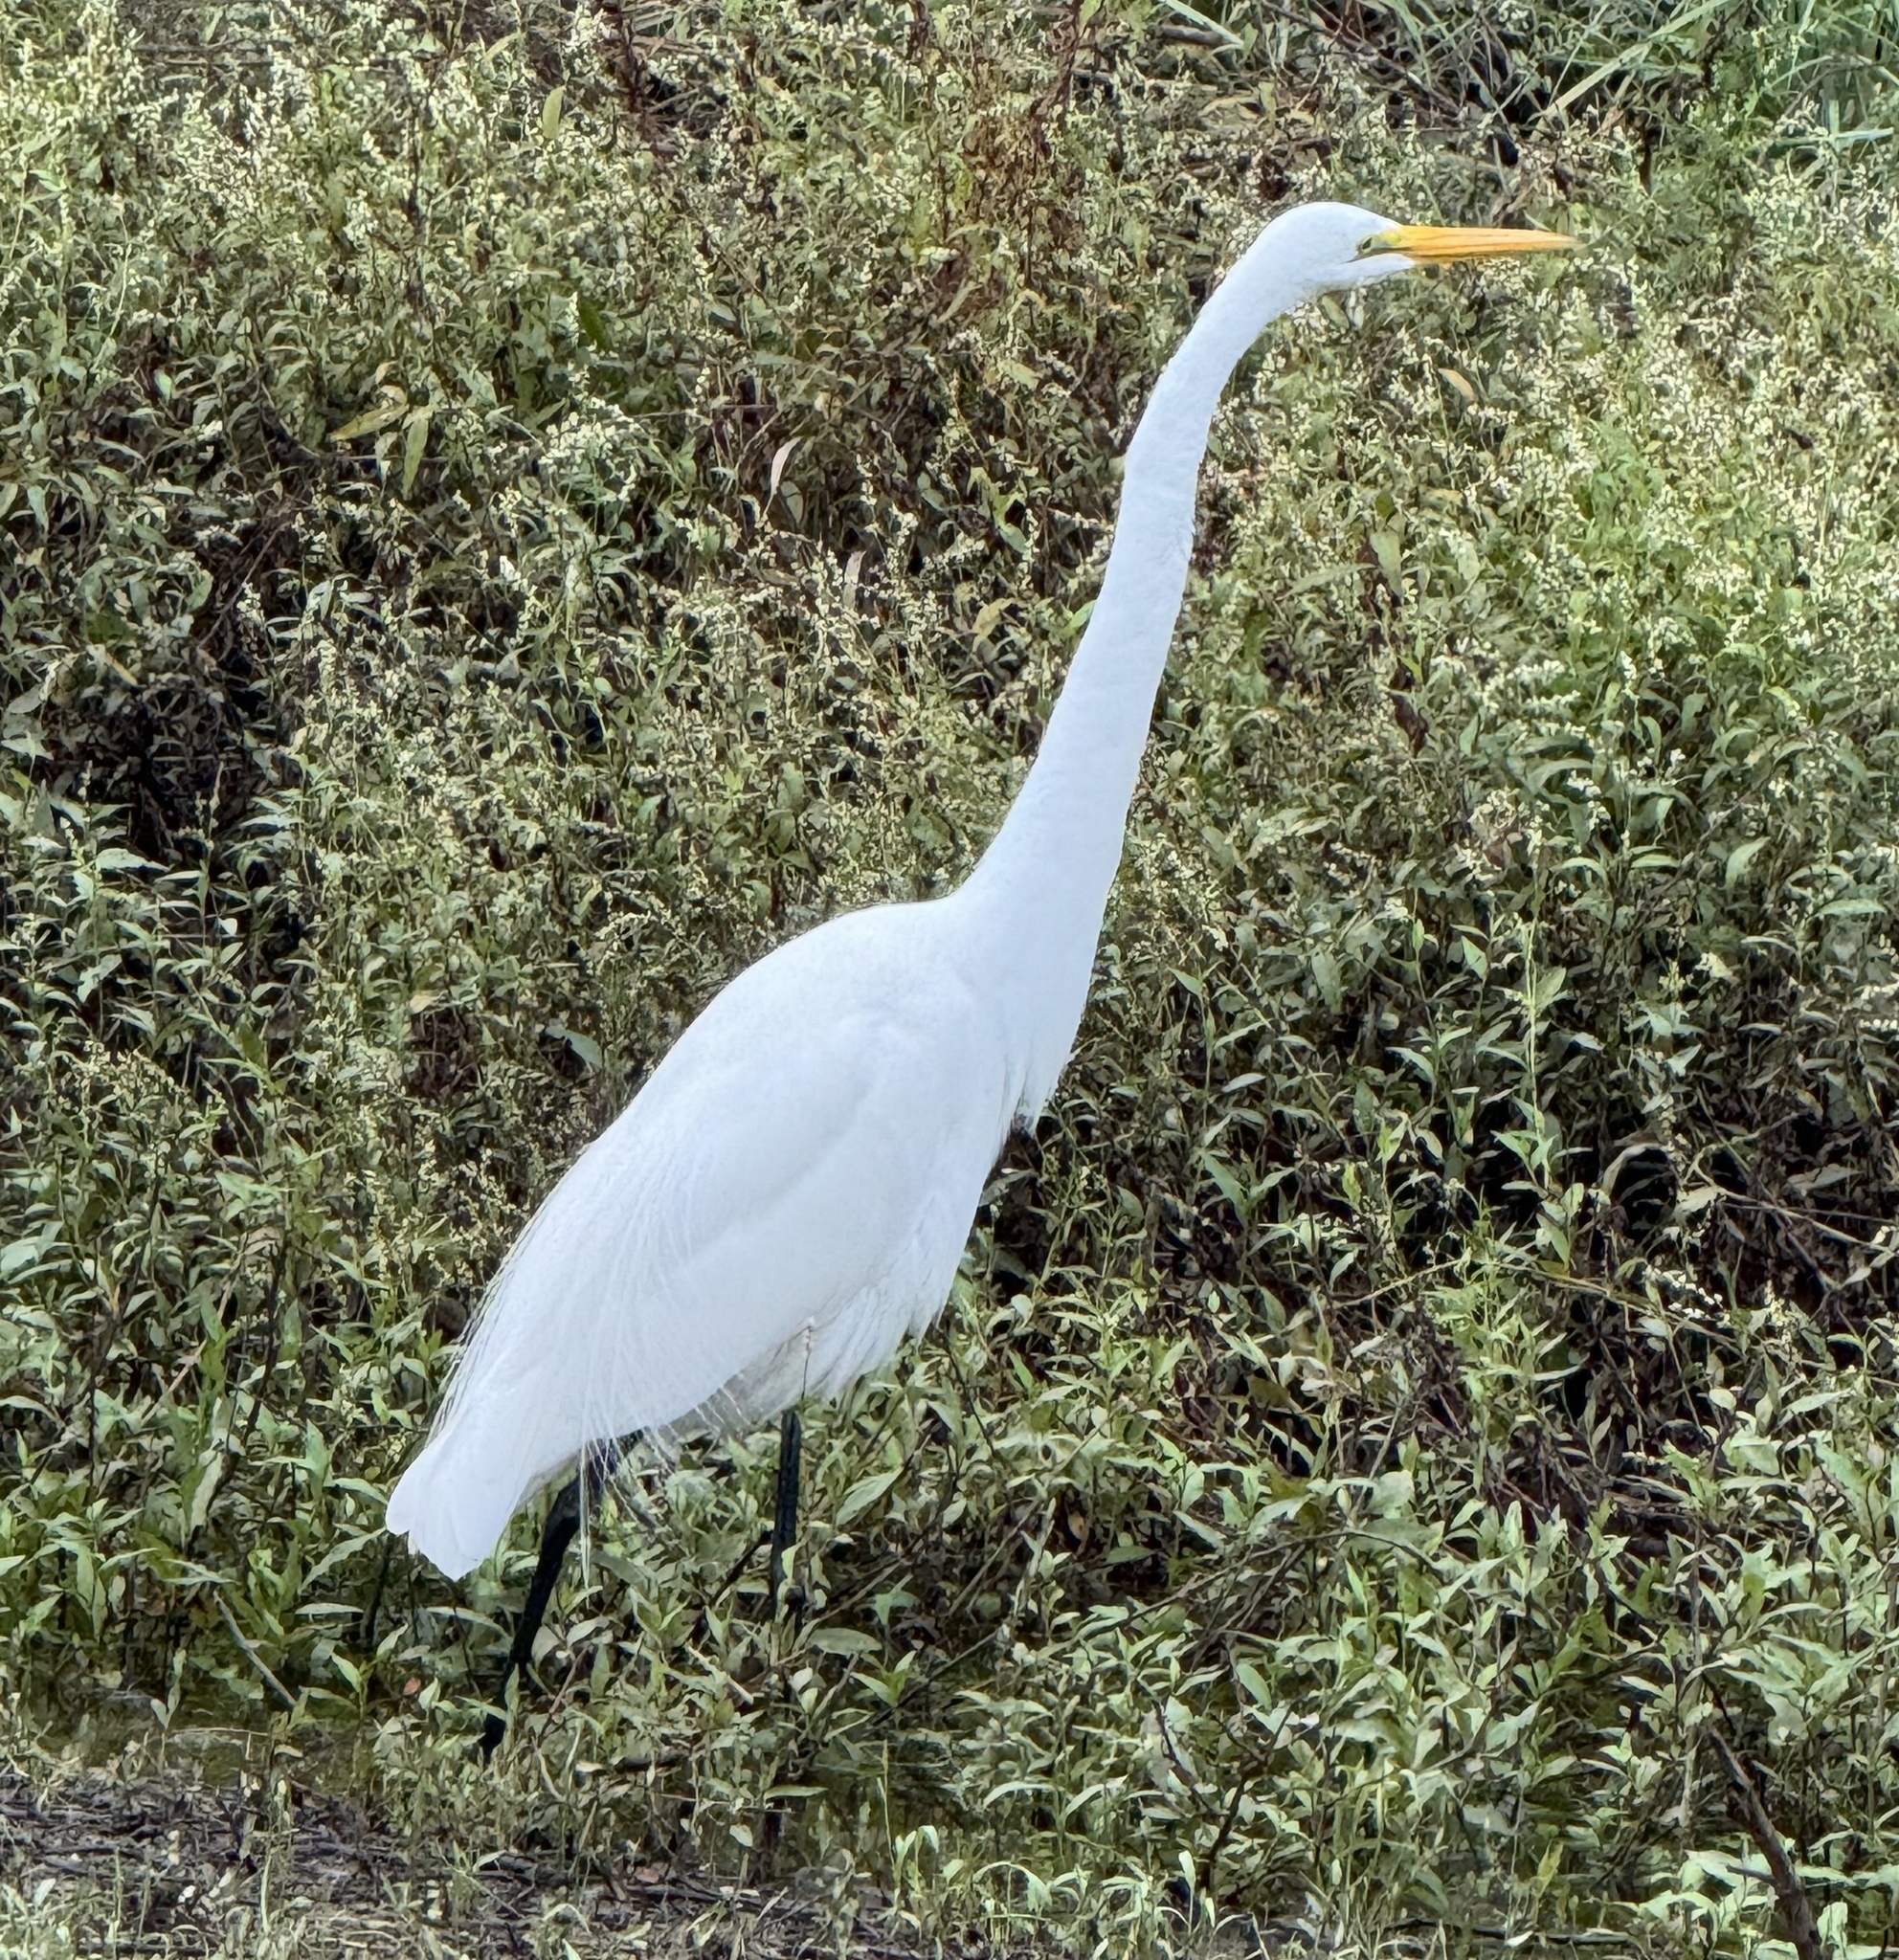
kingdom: Animalia
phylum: Chordata
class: Aves
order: Pelecaniformes
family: Ardeidae
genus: Ardea
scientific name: Ardea alba
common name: Great egret
